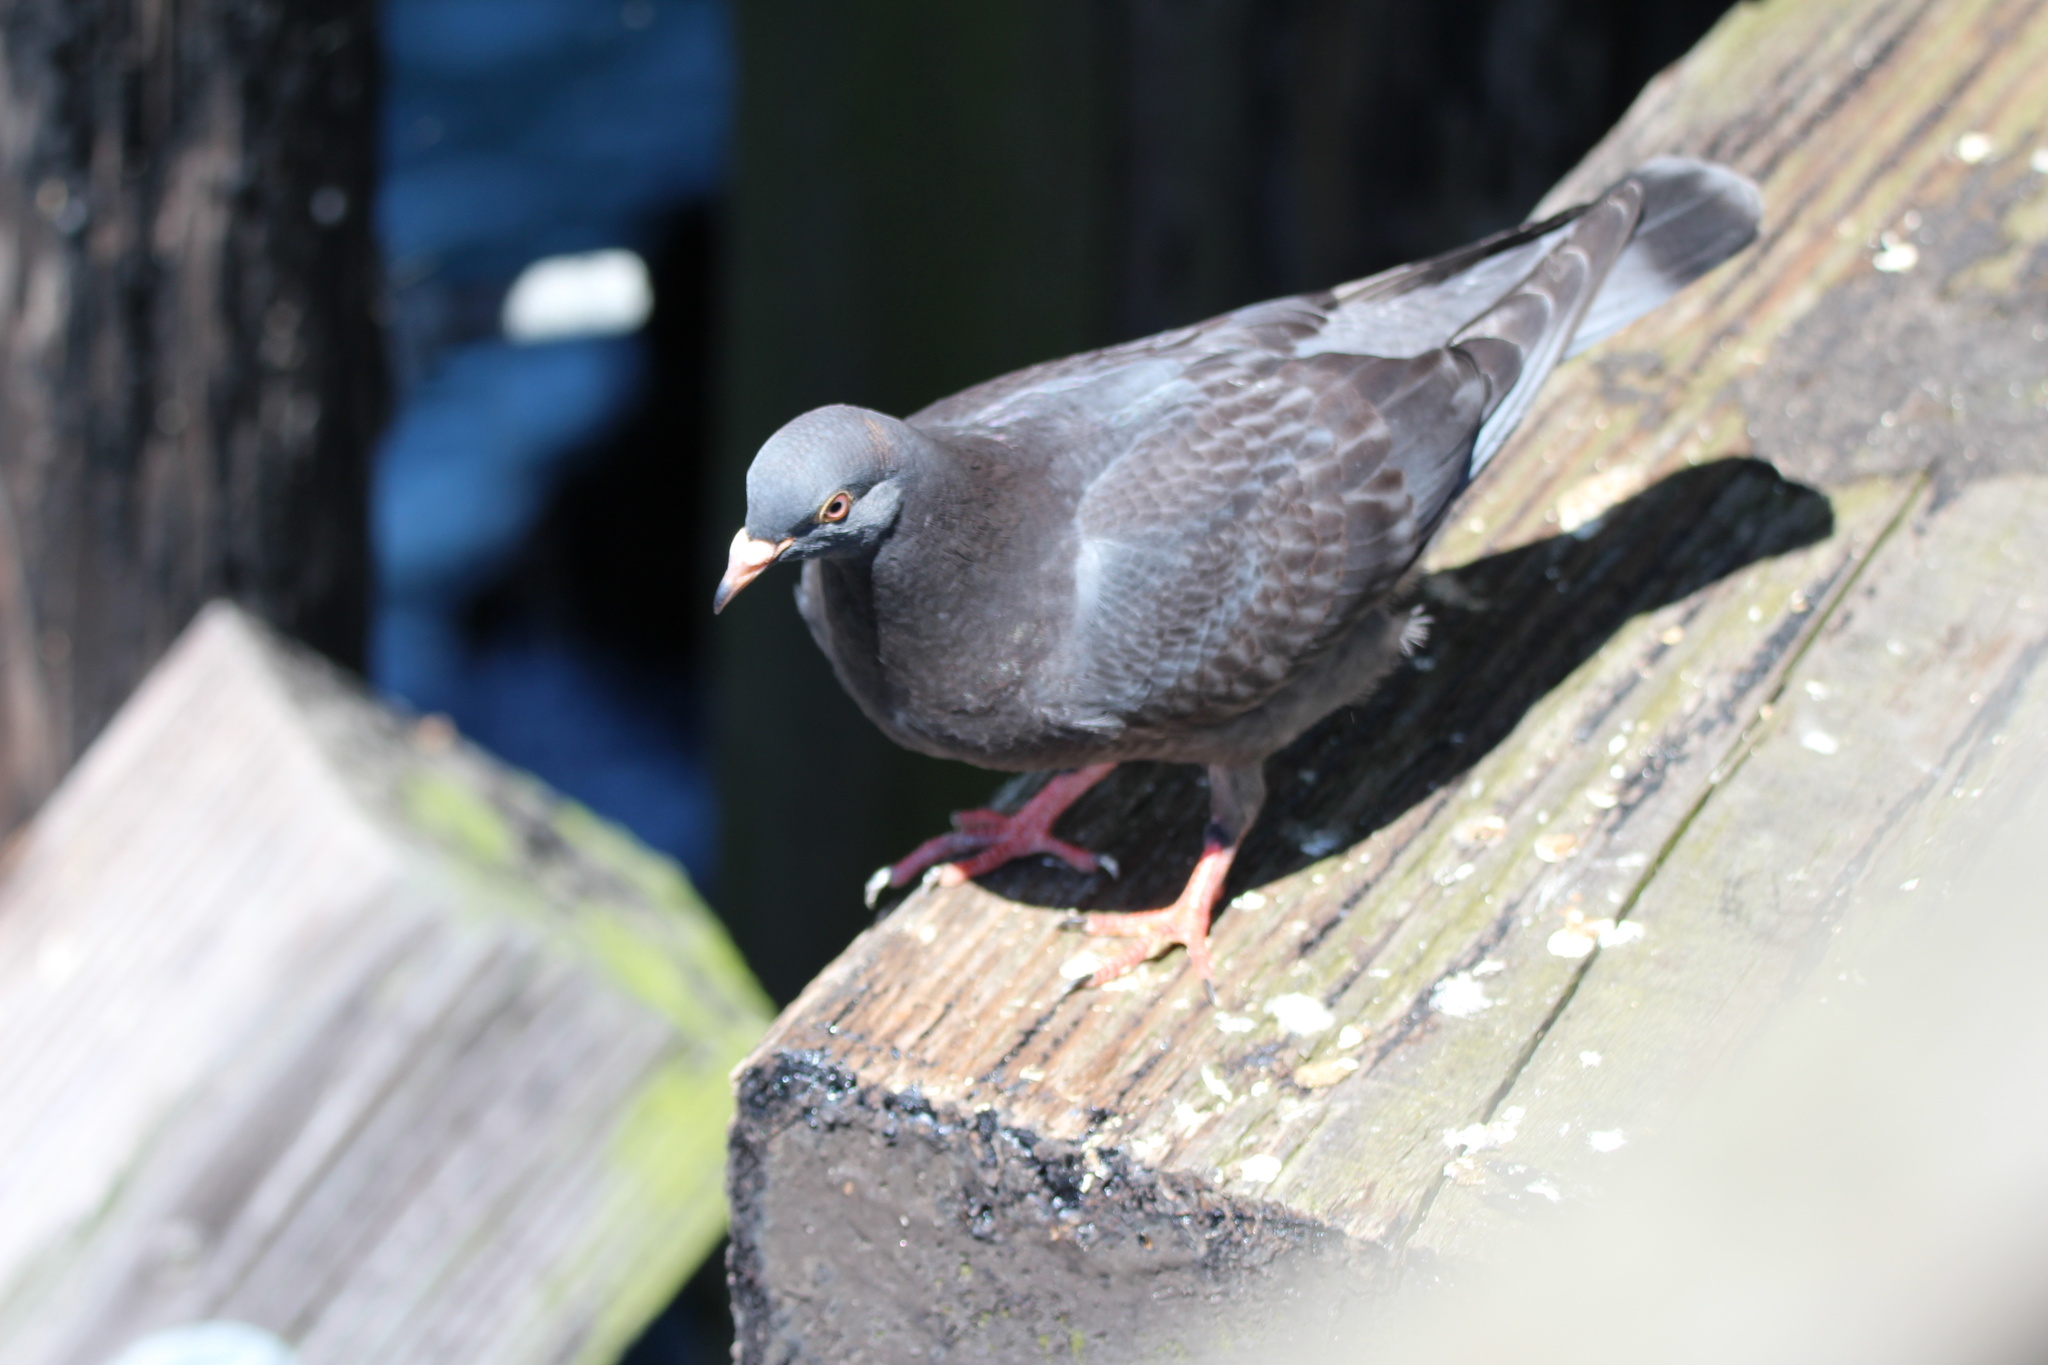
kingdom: Animalia
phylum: Chordata
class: Aves
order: Columbiformes
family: Columbidae
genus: Columba
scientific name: Columba livia
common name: Rock pigeon
